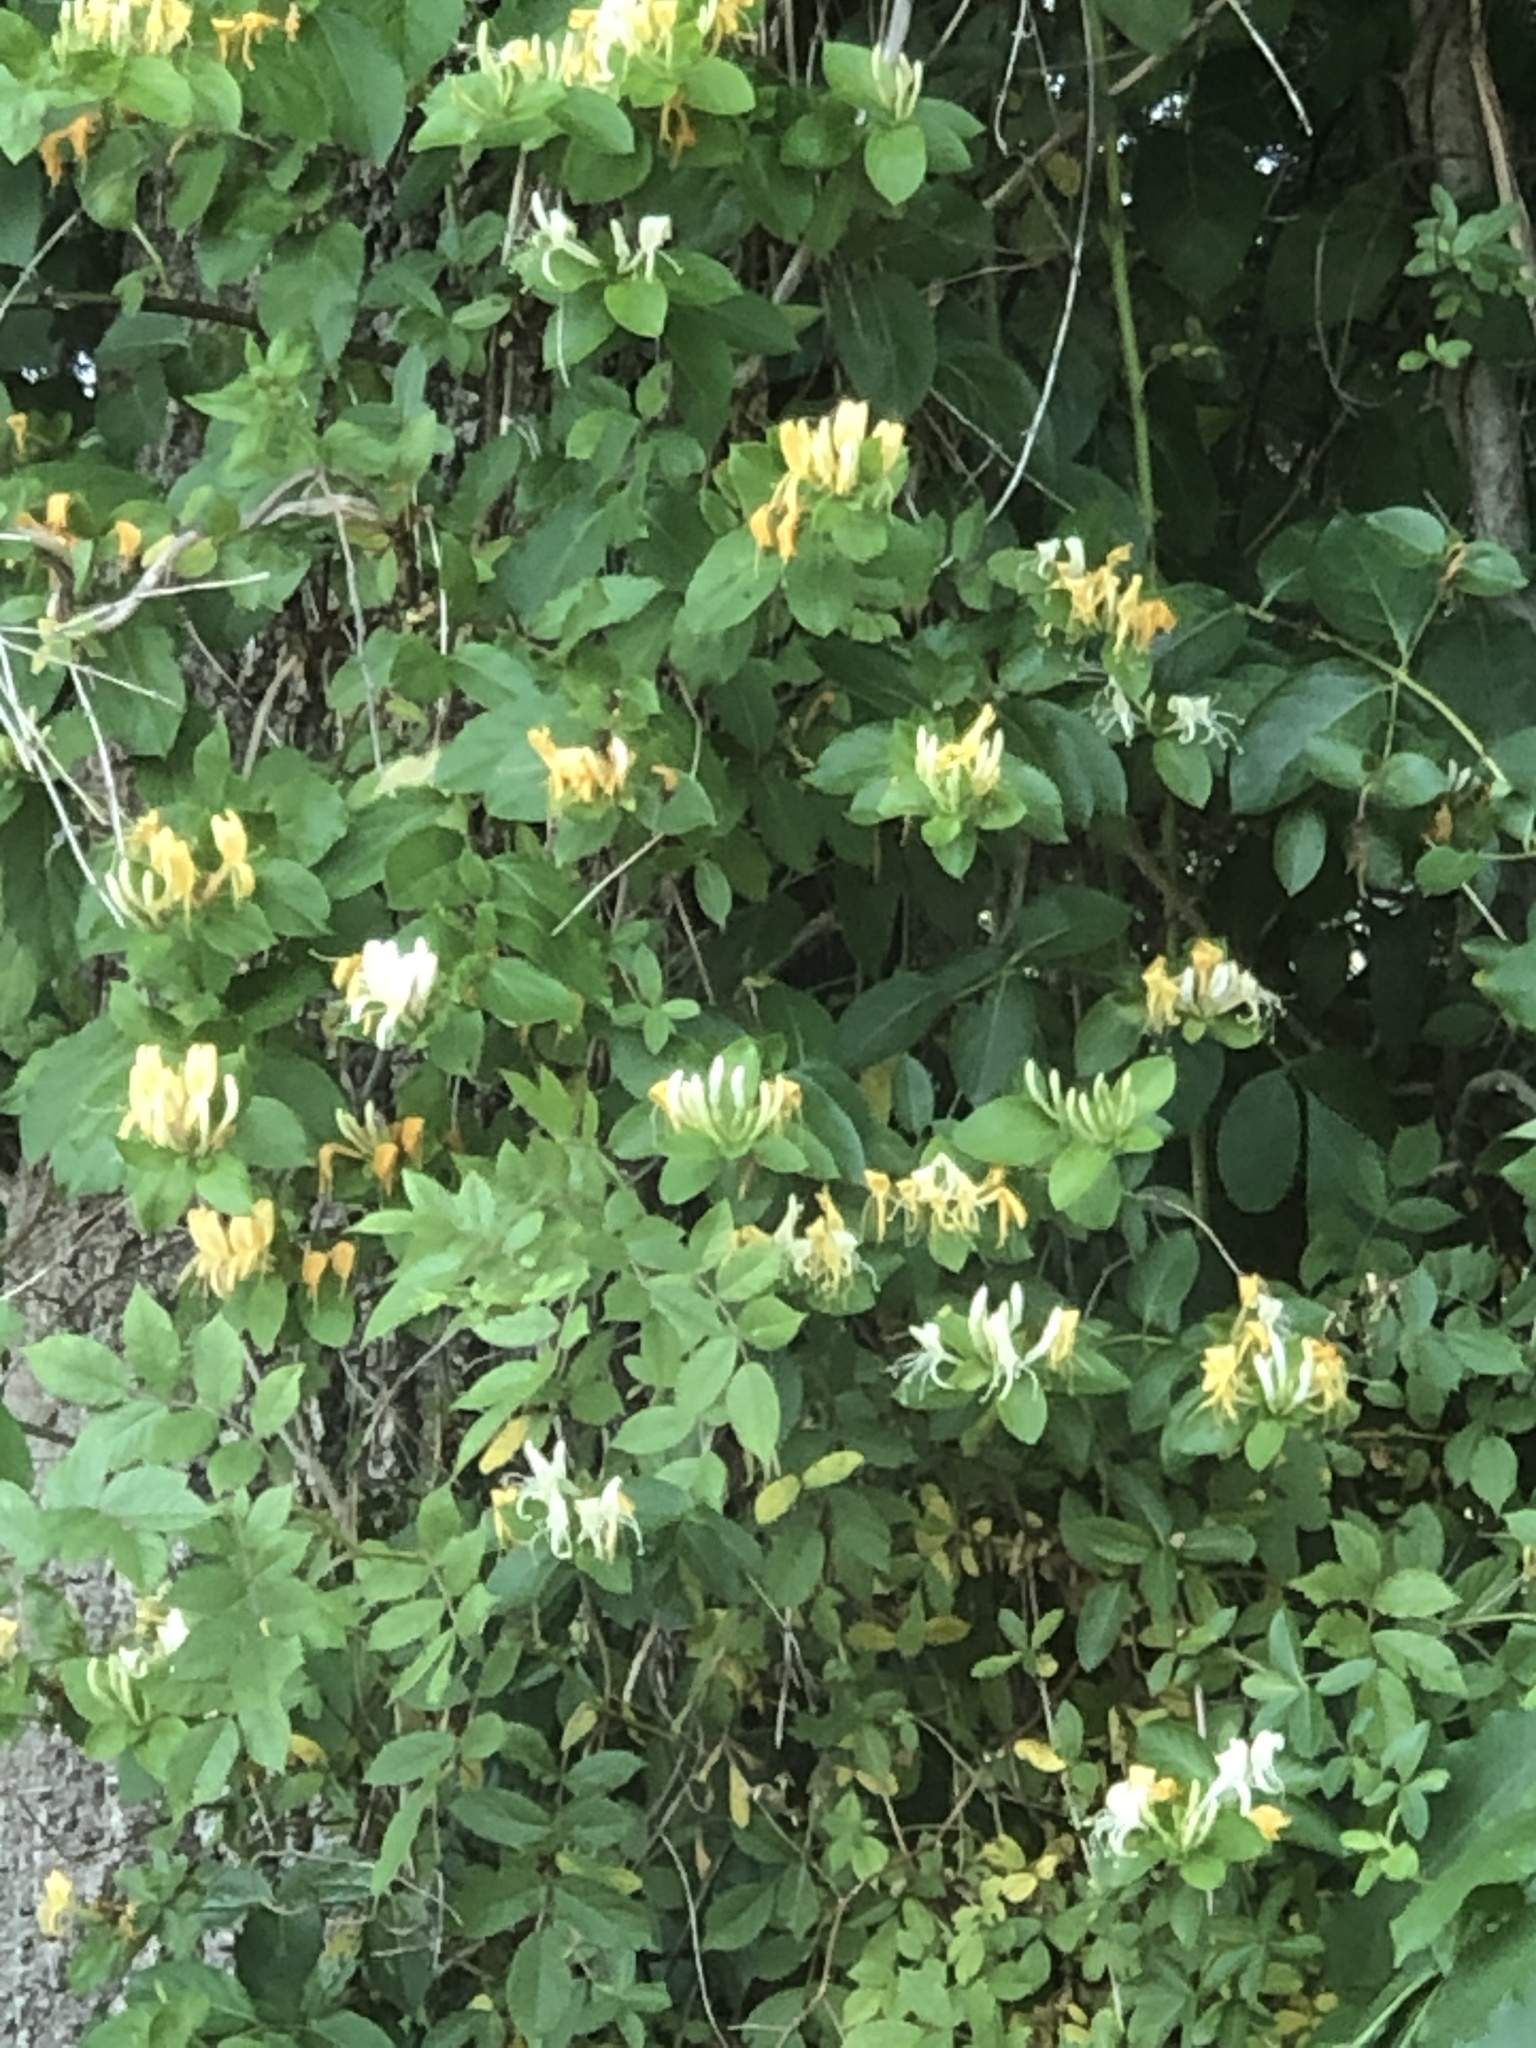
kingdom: Plantae
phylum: Tracheophyta
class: Magnoliopsida
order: Dipsacales
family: Caprifoliaceae
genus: Lonicera
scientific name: Lonicera japonica
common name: Japanese honeysuckle
